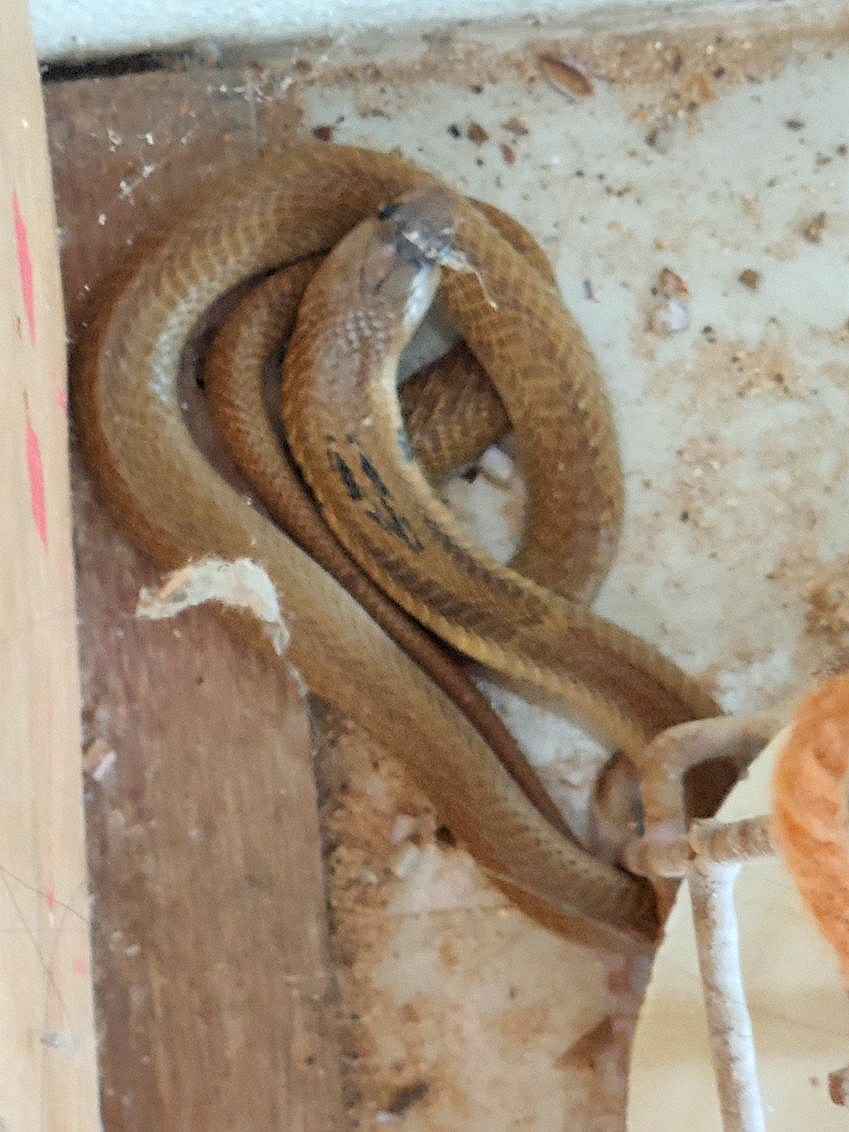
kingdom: Animalia
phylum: Chordata
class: Squamata
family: Elapidae
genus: Naja
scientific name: Naja naja
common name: Indian cobra
